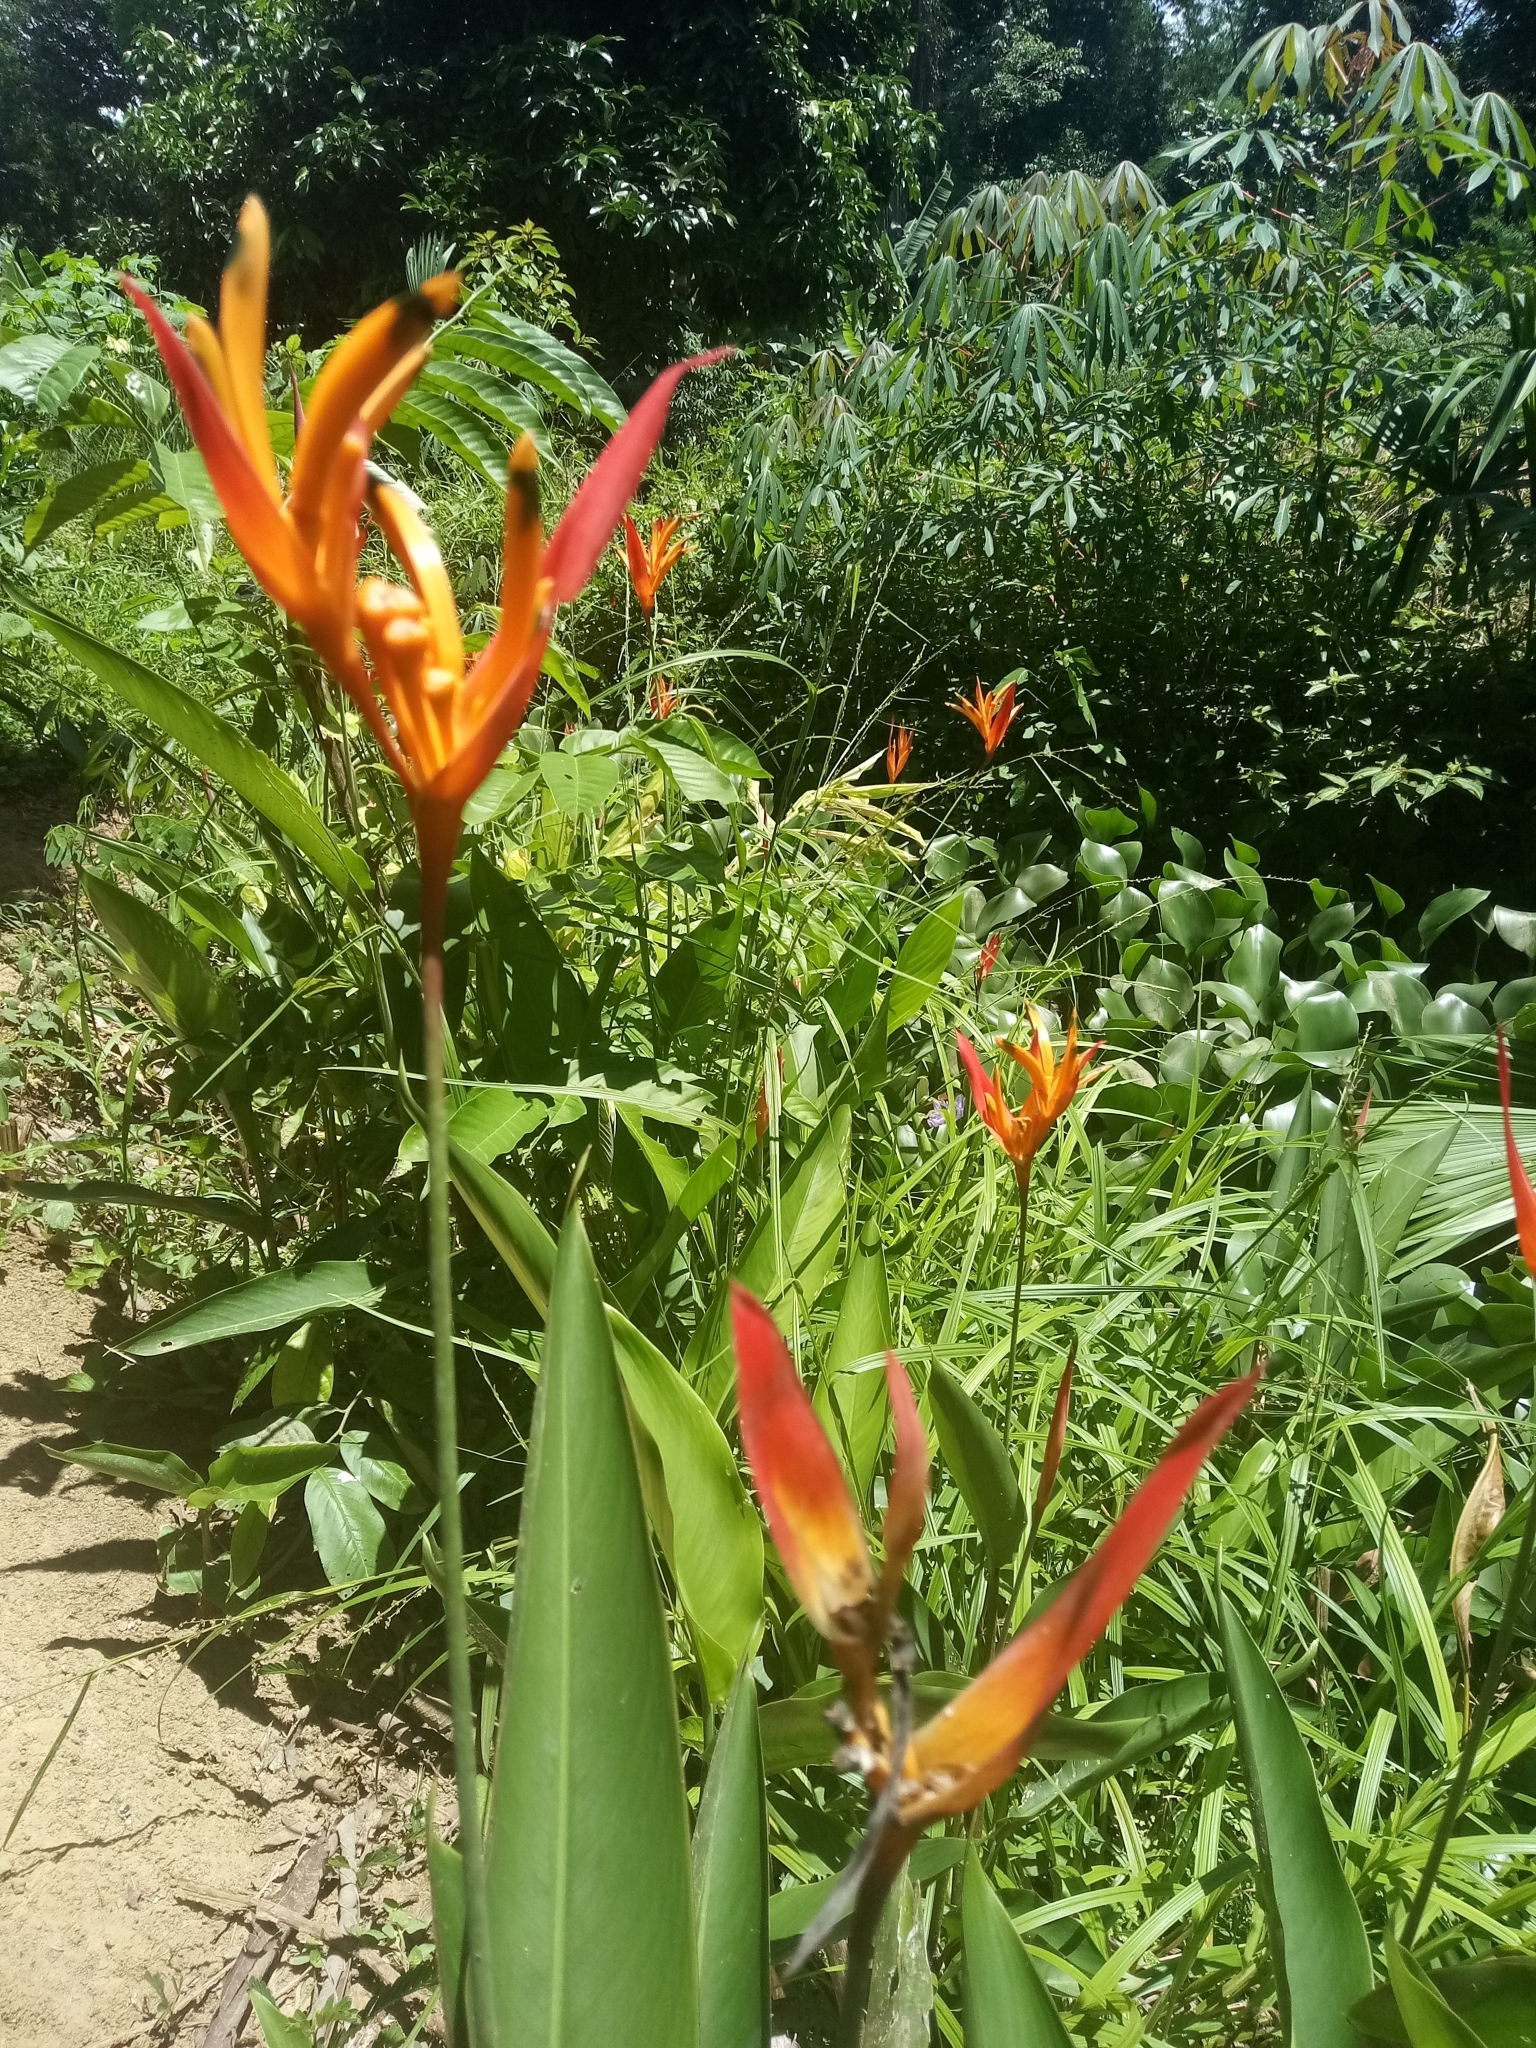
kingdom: Plantae
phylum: Tracheophyta
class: Liliopsida
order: Zingiberales
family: Heliconiaceae
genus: Heliconia
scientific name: Heliconia psittacorum
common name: Parrot's-flower
